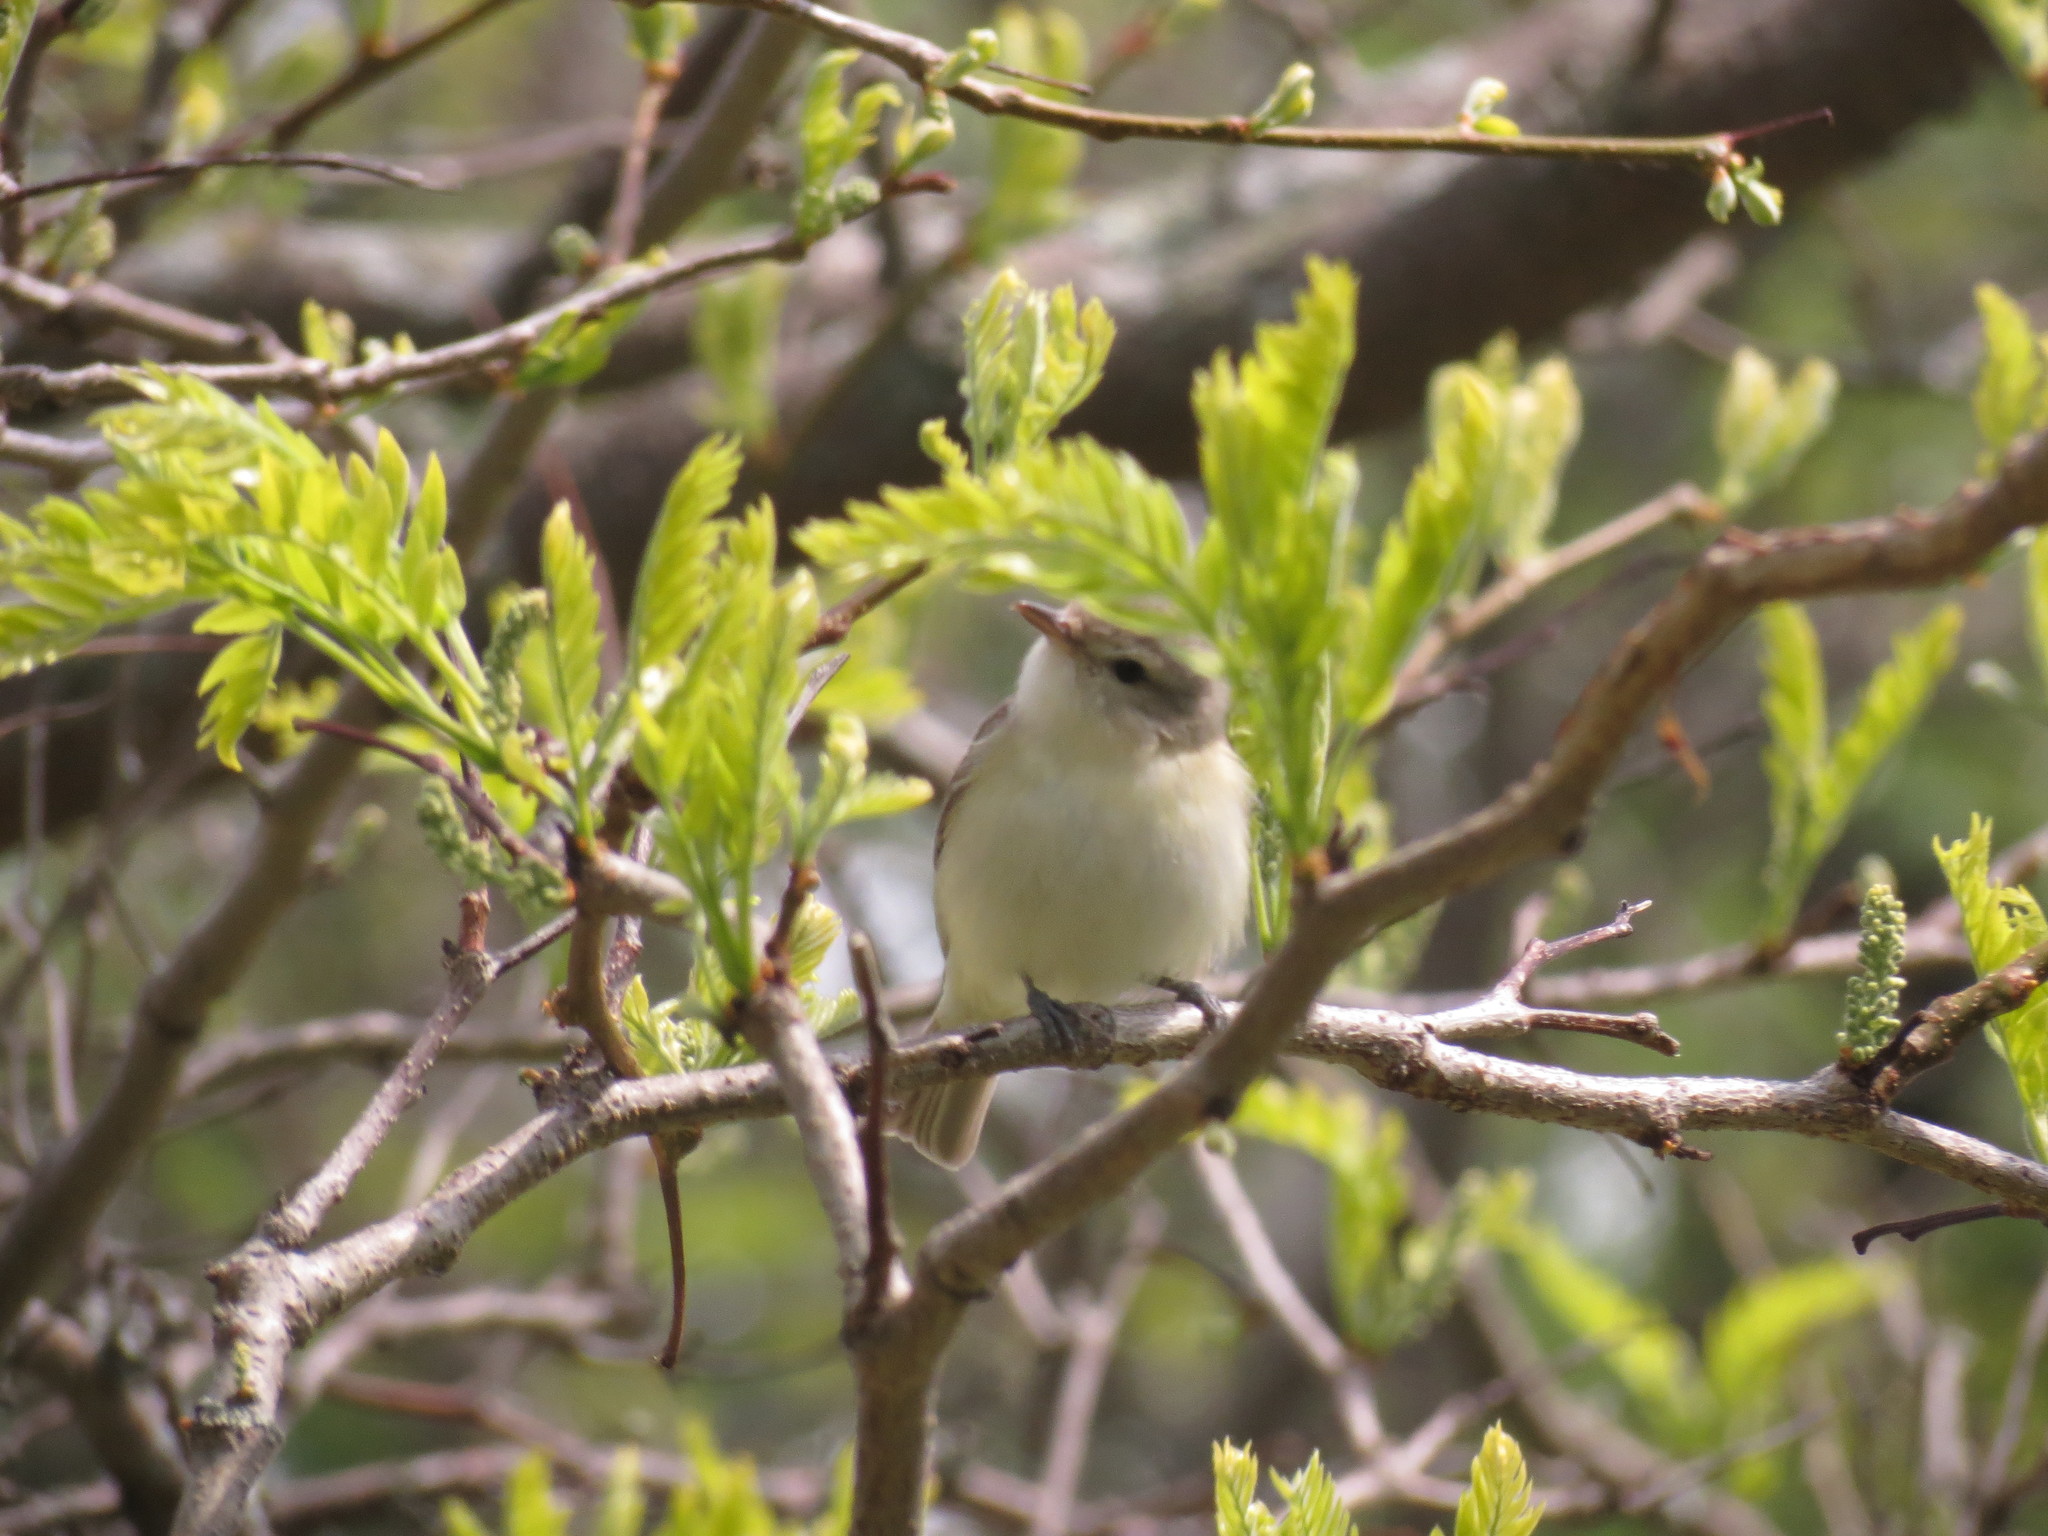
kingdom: Animalia
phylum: Chordata
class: Aves
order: Passeriformes
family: Vireonidae
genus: Vireo
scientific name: Vireo gilvus
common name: Warbling vireo
